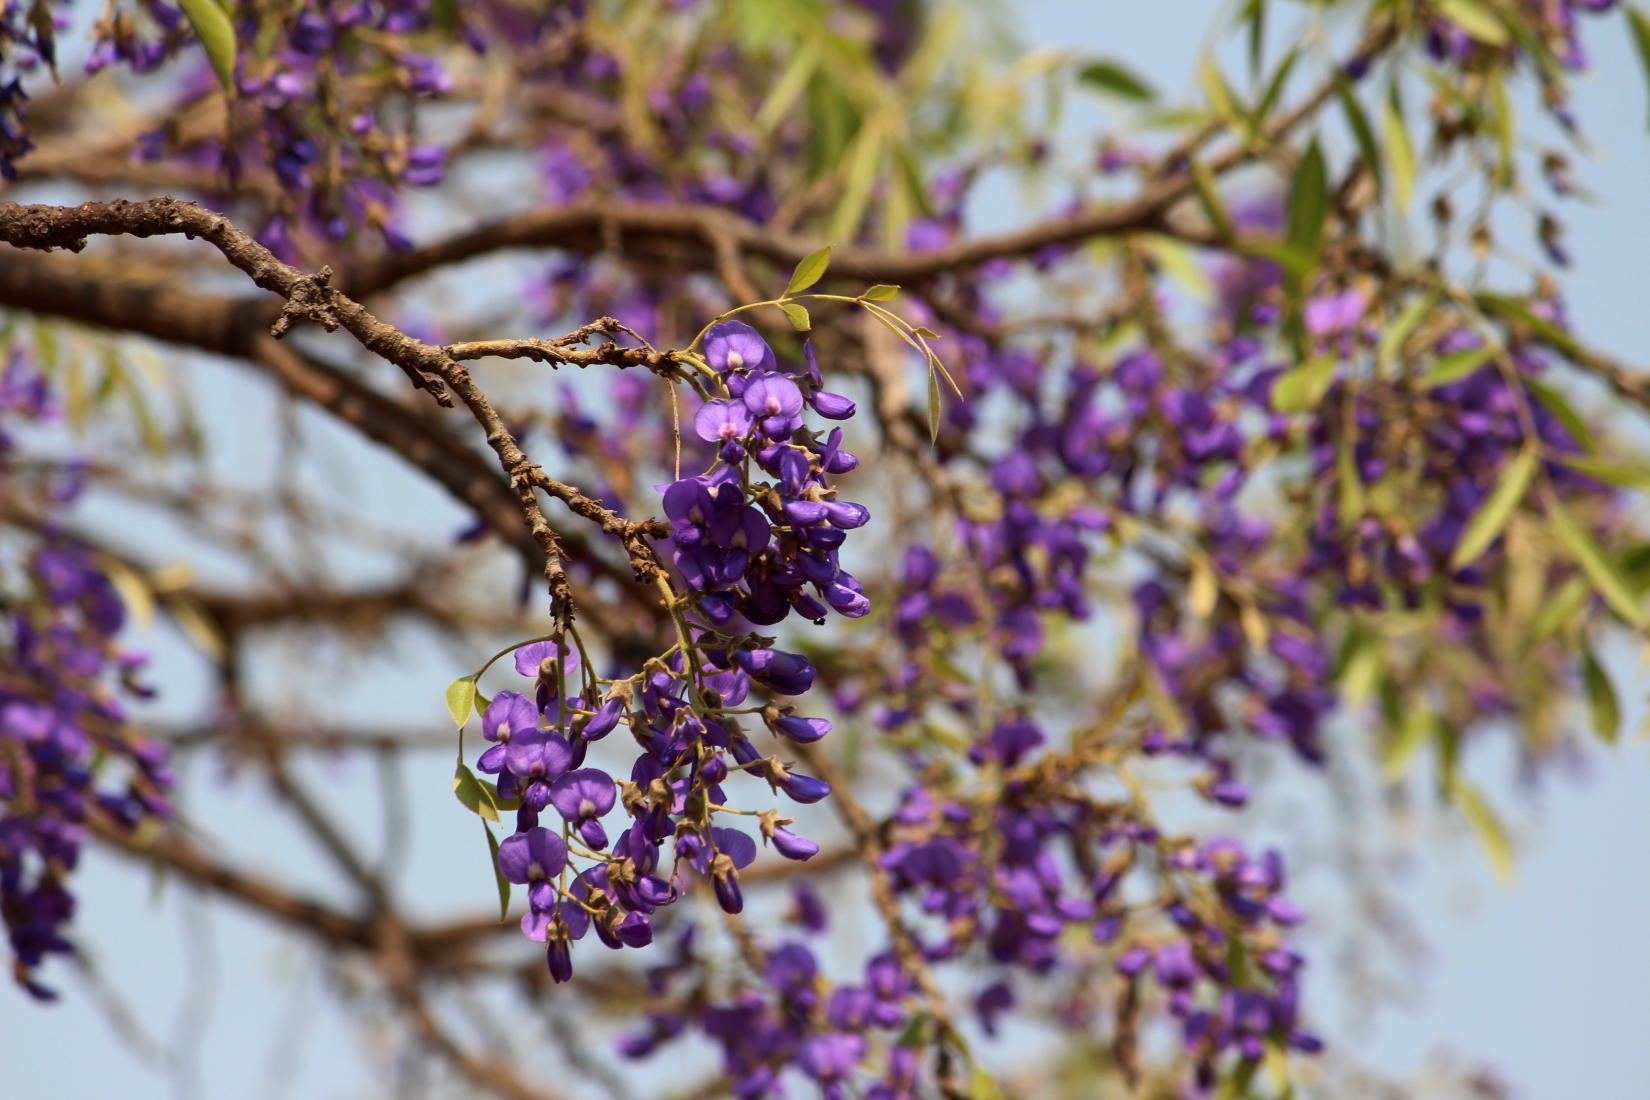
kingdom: Plantae
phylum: Tracheophyta
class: Magnoliopsida
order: Fabales
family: Fabaceae
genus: Bolusanthus
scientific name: Bolusanthus speciosus
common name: Tree wisteria
